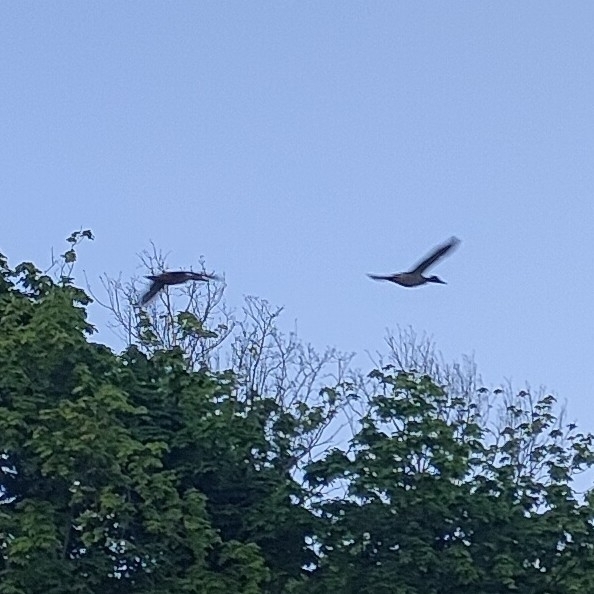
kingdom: Animalia
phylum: Chordata
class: Aves
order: Anseriformes
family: Anatidae
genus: Anas
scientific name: Anas platyrhynchos
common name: Mallard
